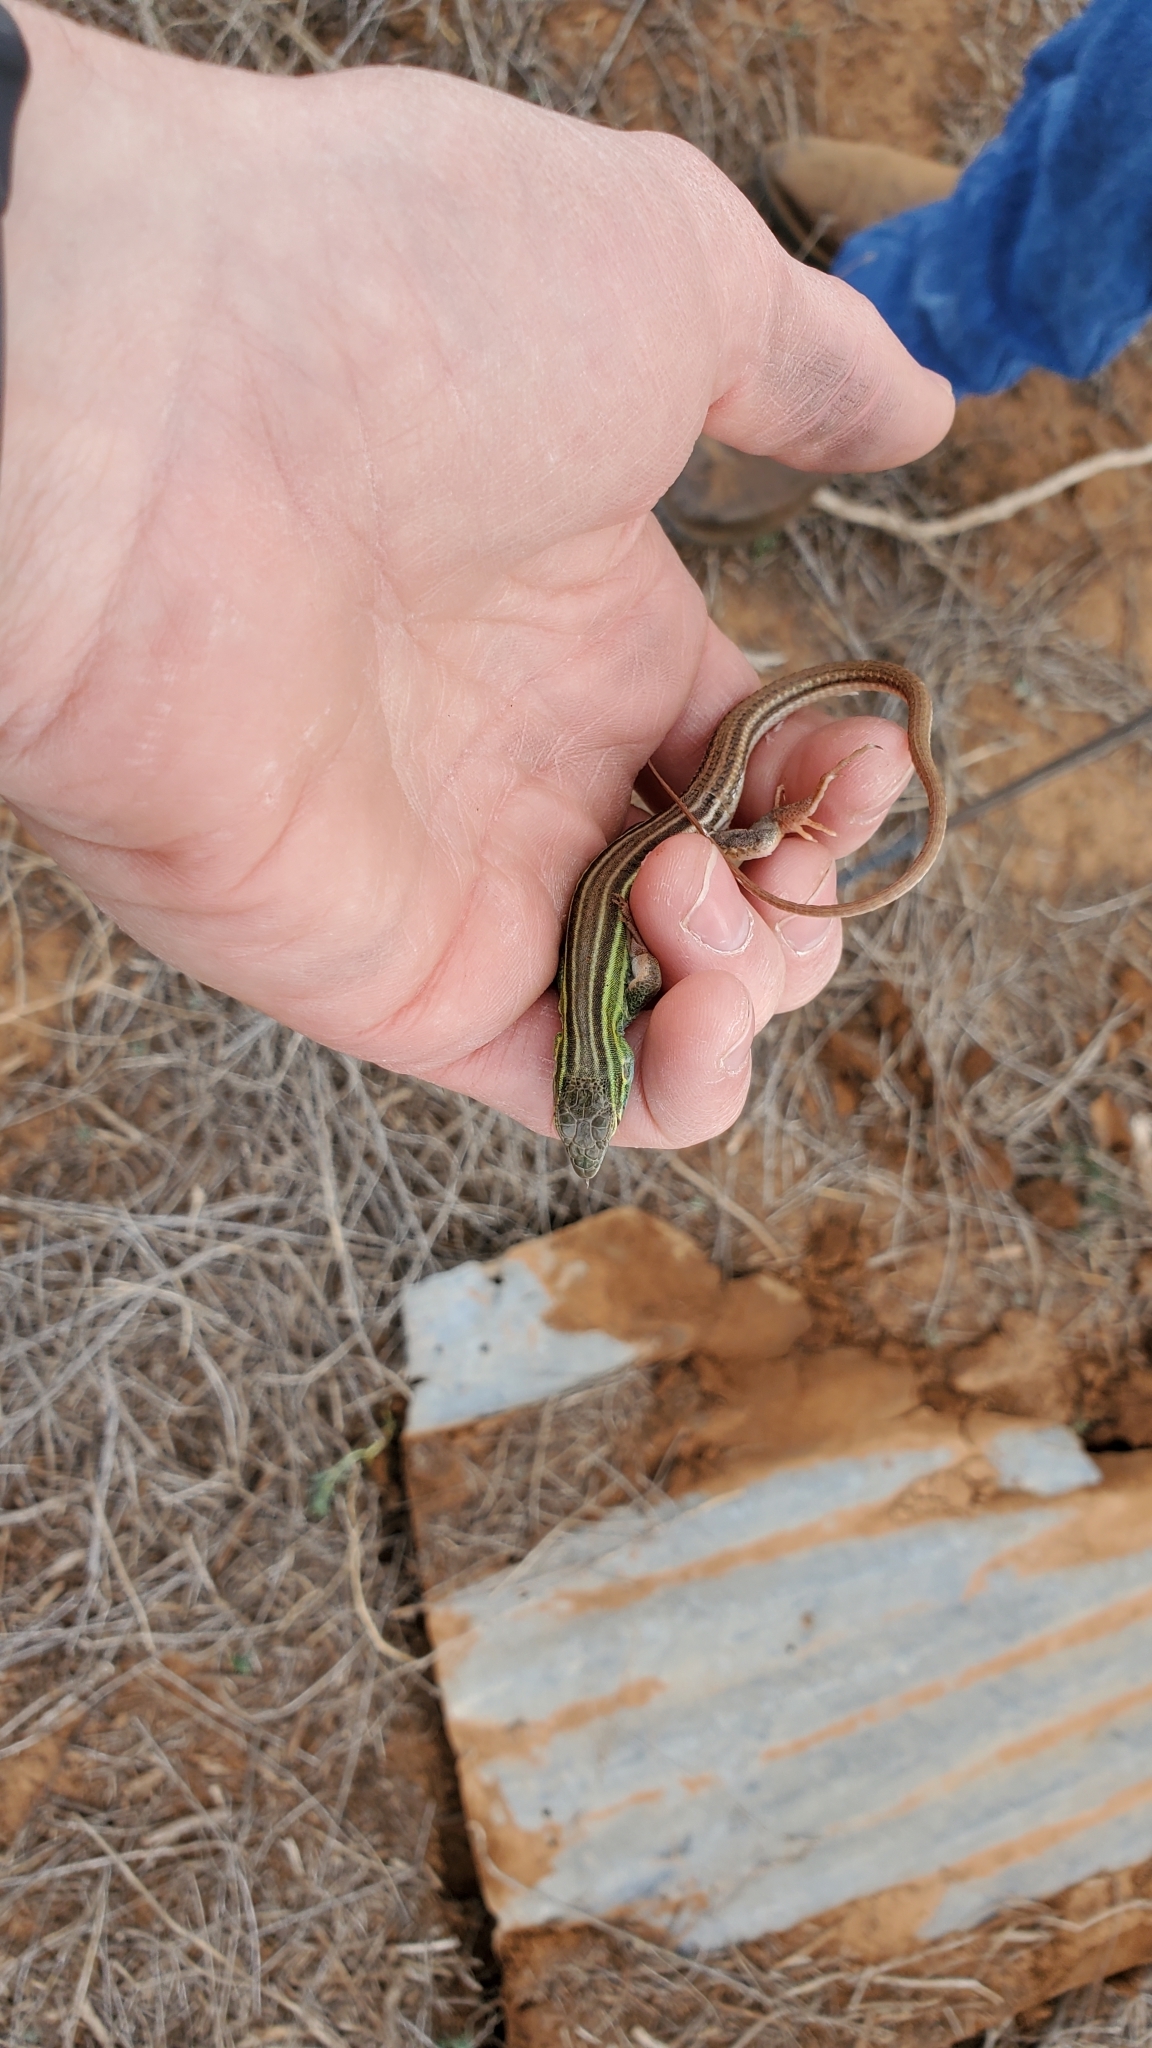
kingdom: Animalia
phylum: Chordata
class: Squamata
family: Teiidae
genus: Aspidoscelis
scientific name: Aspidoscelis sexlineatus
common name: Six-lined racerunner
